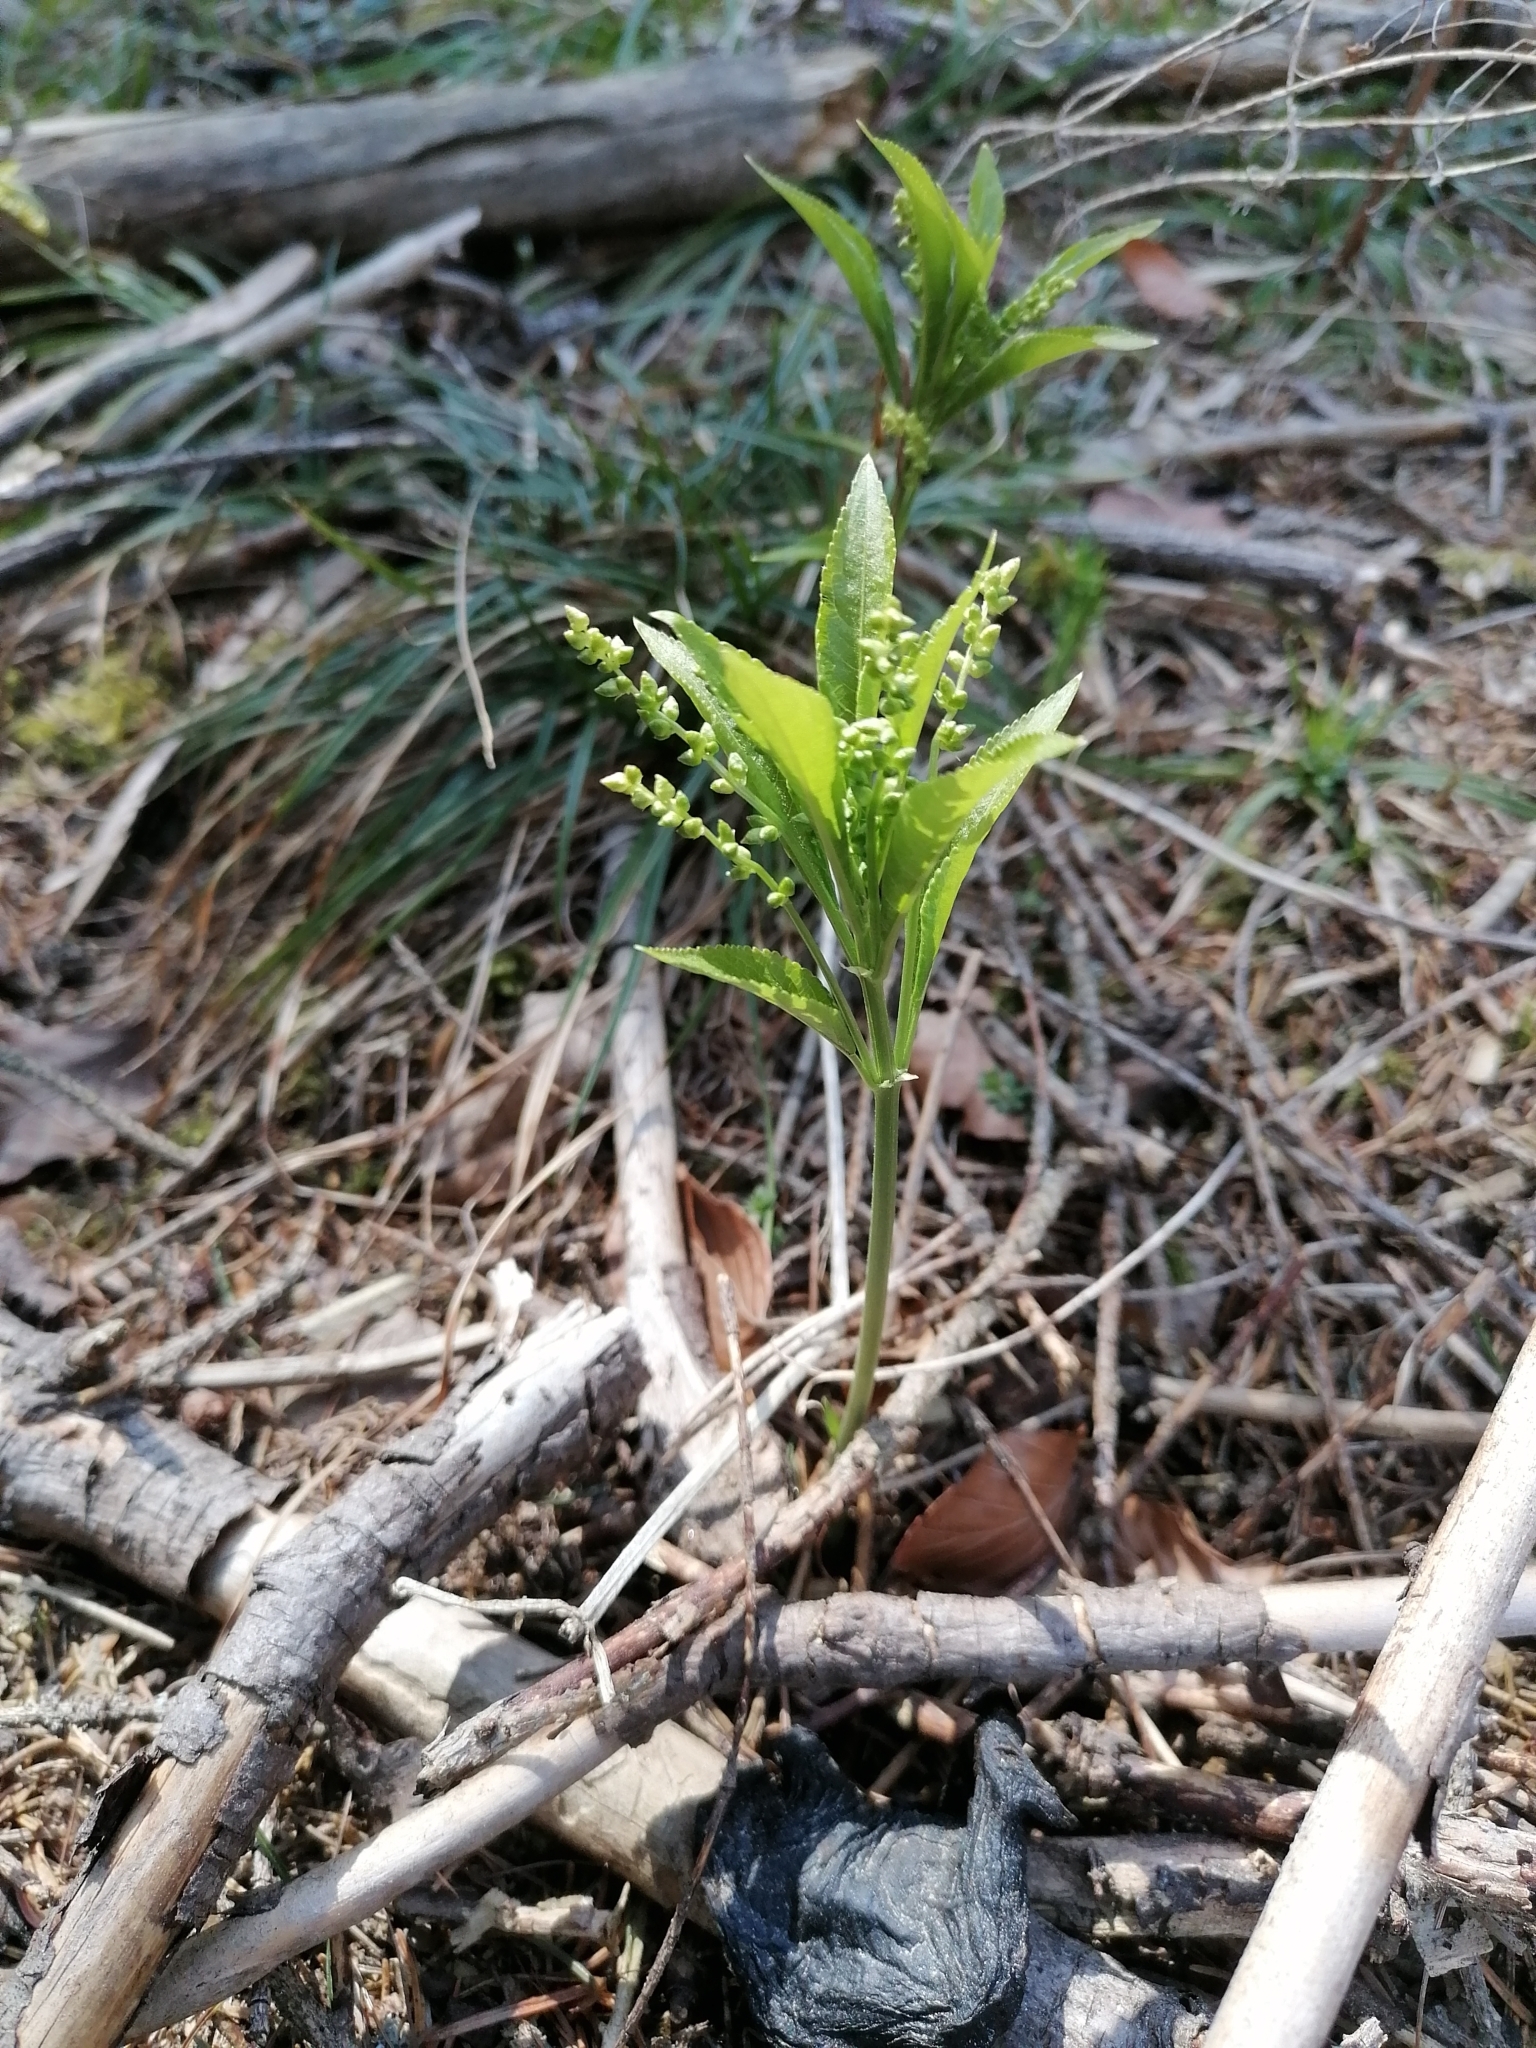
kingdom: Plantae
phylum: Tracheophyta
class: Magnoliopsida
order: Malpighiales
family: Euphorbiaceae
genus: Mercurialis
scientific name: Mercurialis perennis
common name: Dog mercury
